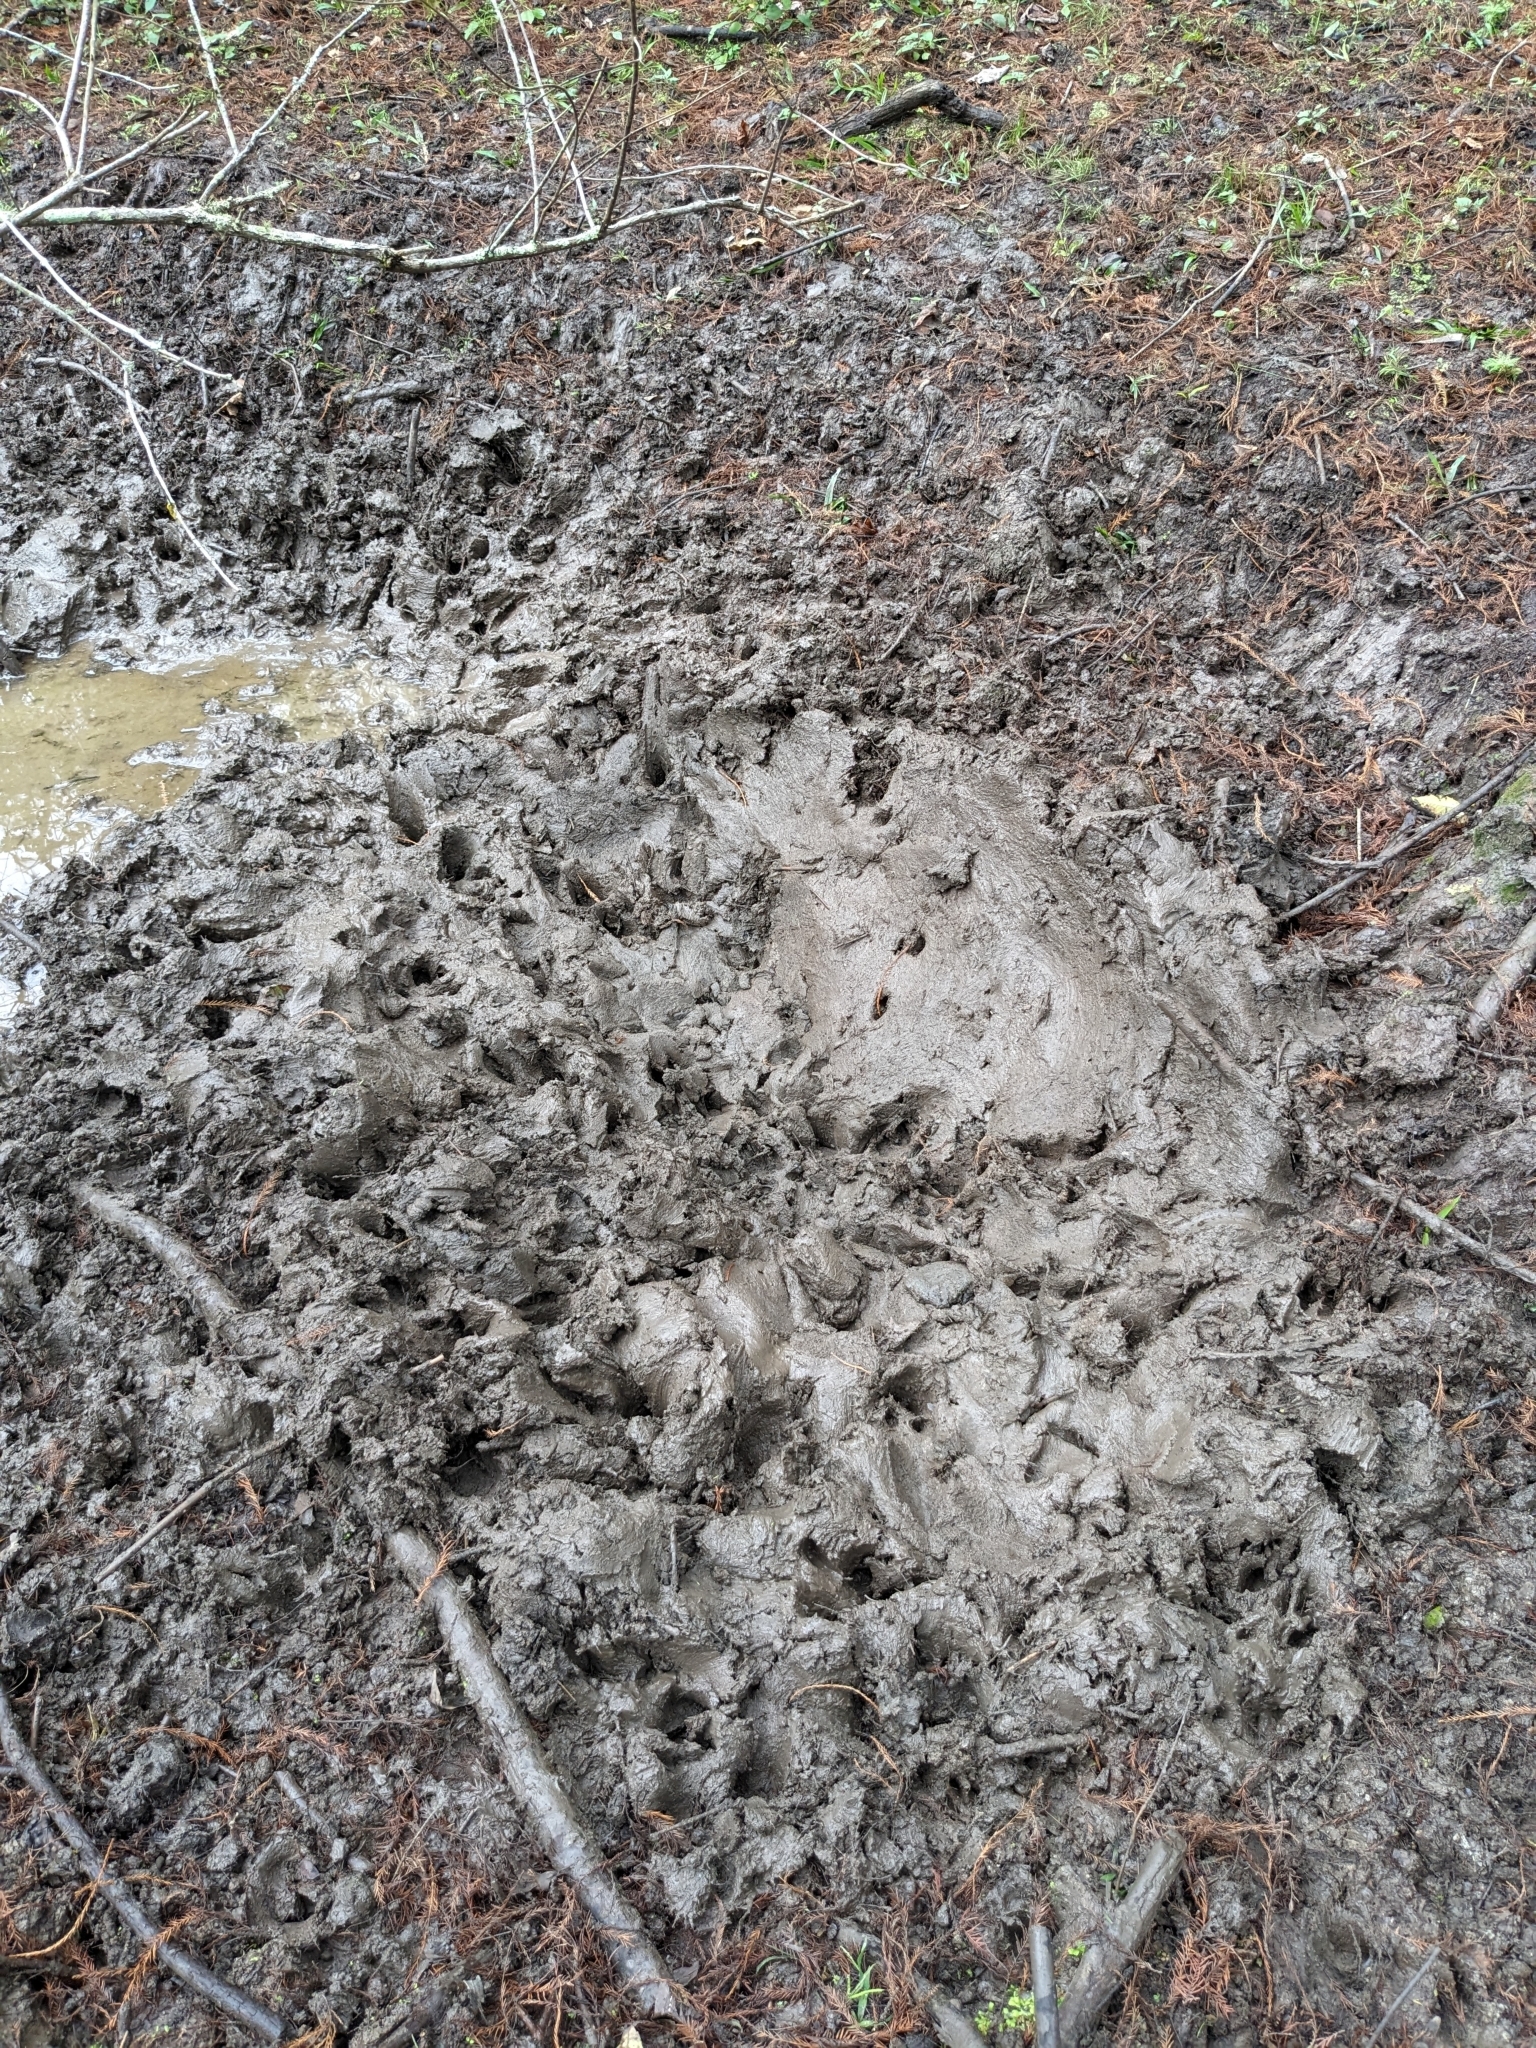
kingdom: Animalia
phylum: Chordata
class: Mammalia
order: Artiodactyla
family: Suidae
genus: Sus
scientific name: Sus scrofa
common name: Wild boar
